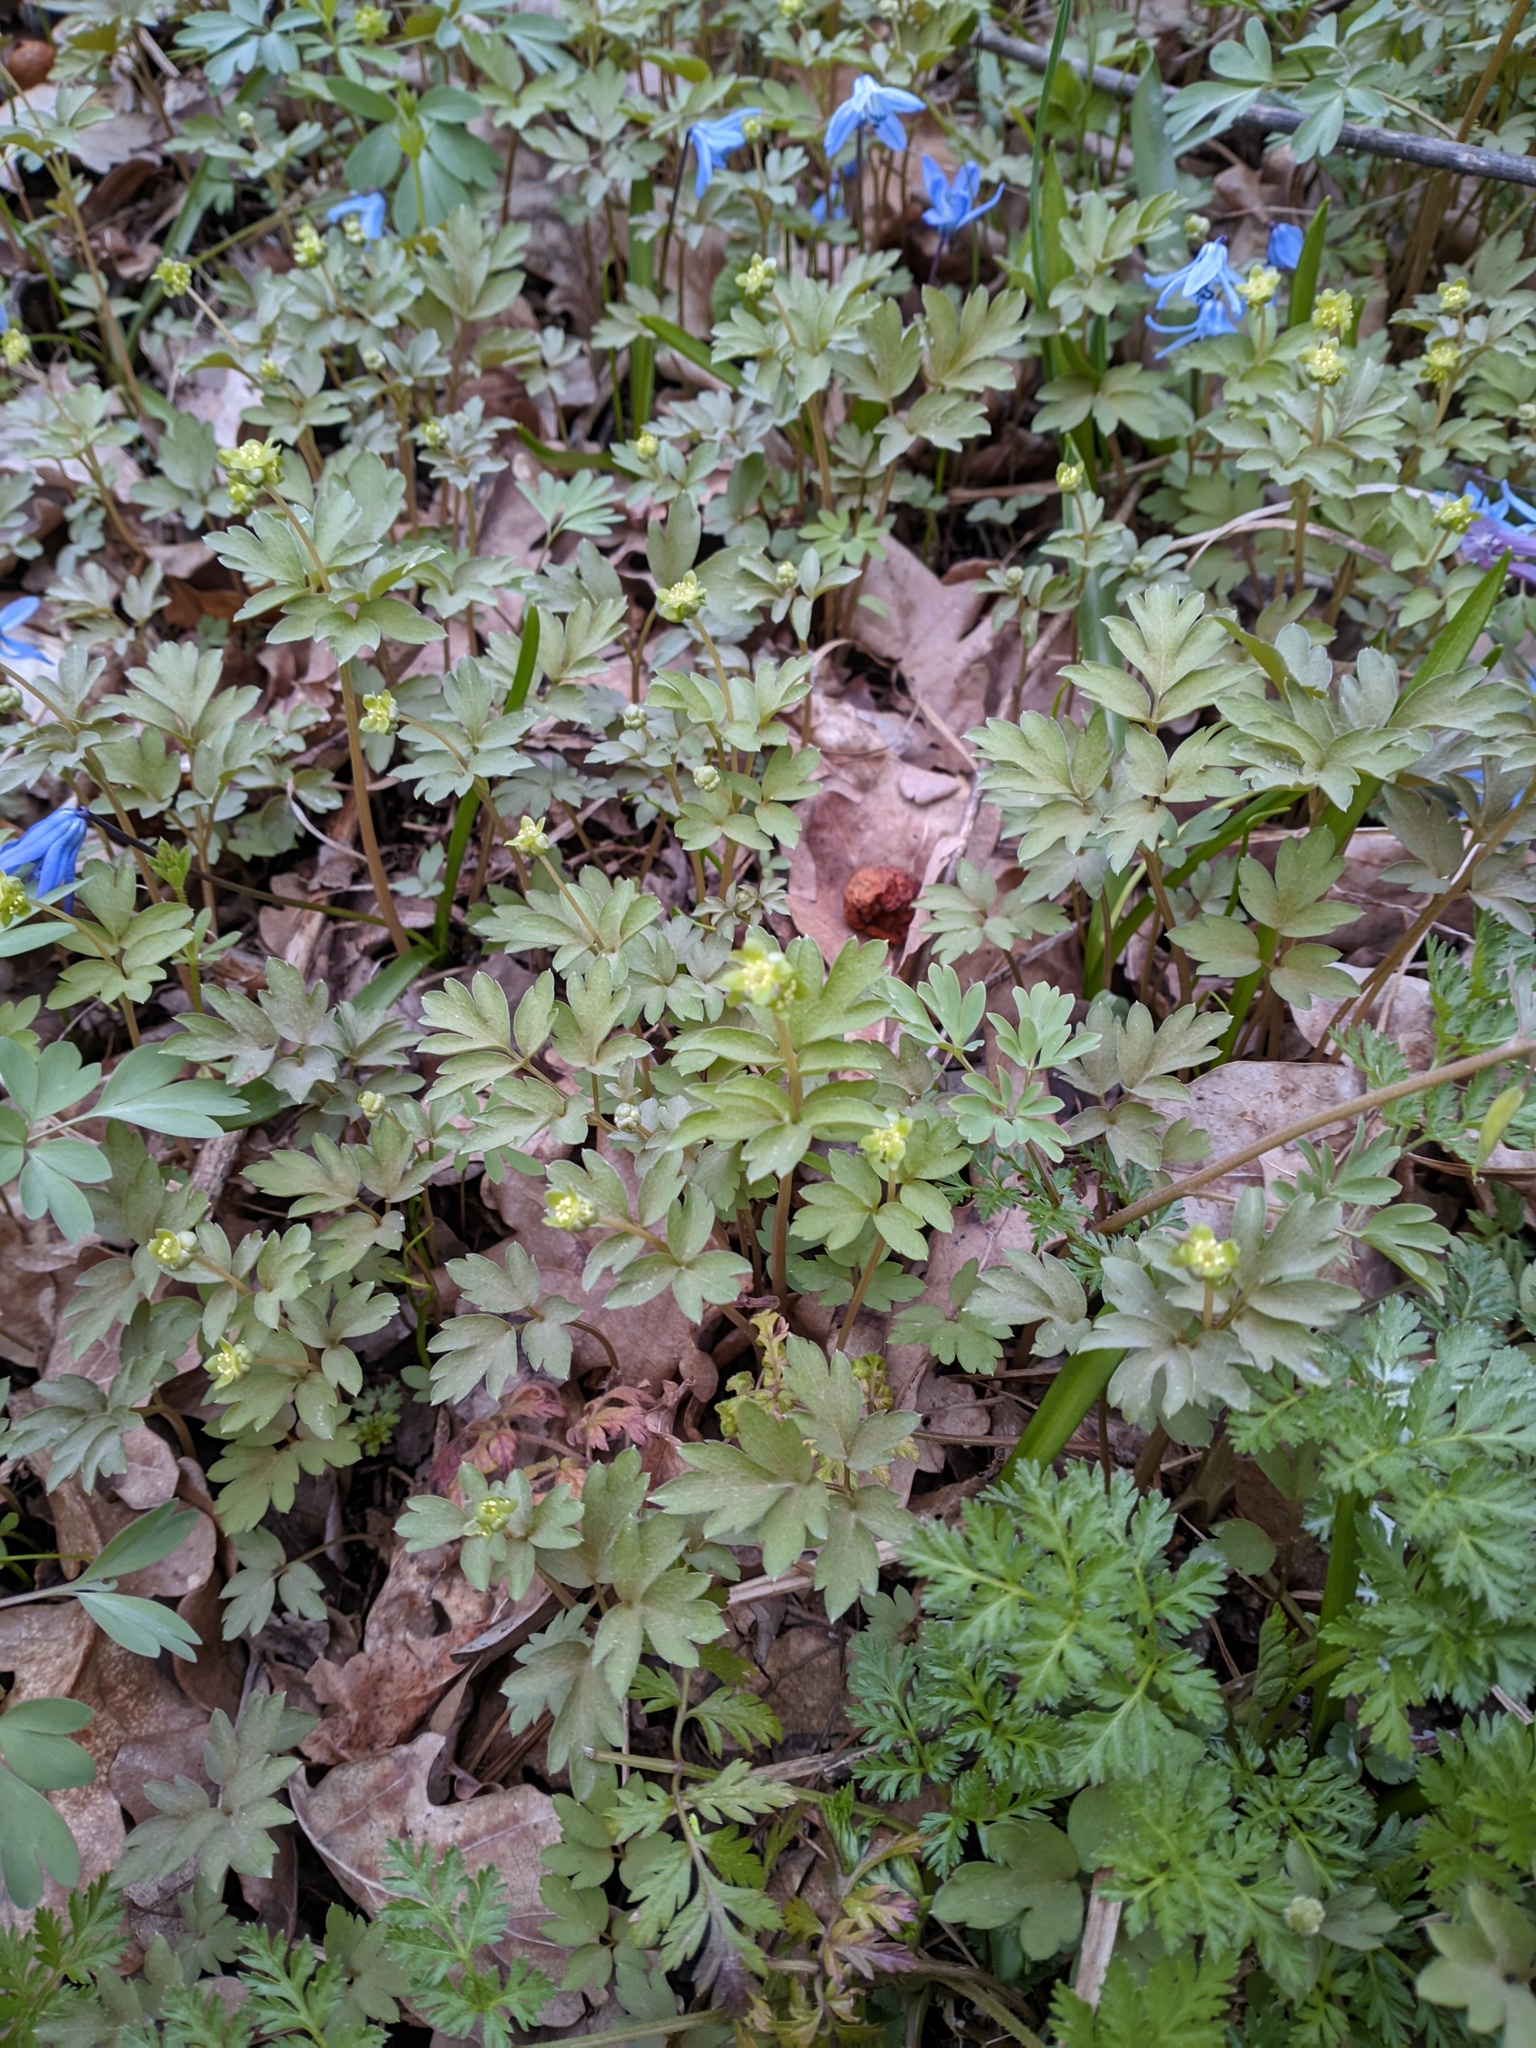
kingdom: Plantae
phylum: Tracheophyta
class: Magnoliopsida
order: Dipsacales
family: Viburnaceae
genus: Adoxa
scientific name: Adoxa moschatellina
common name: Moschatel
